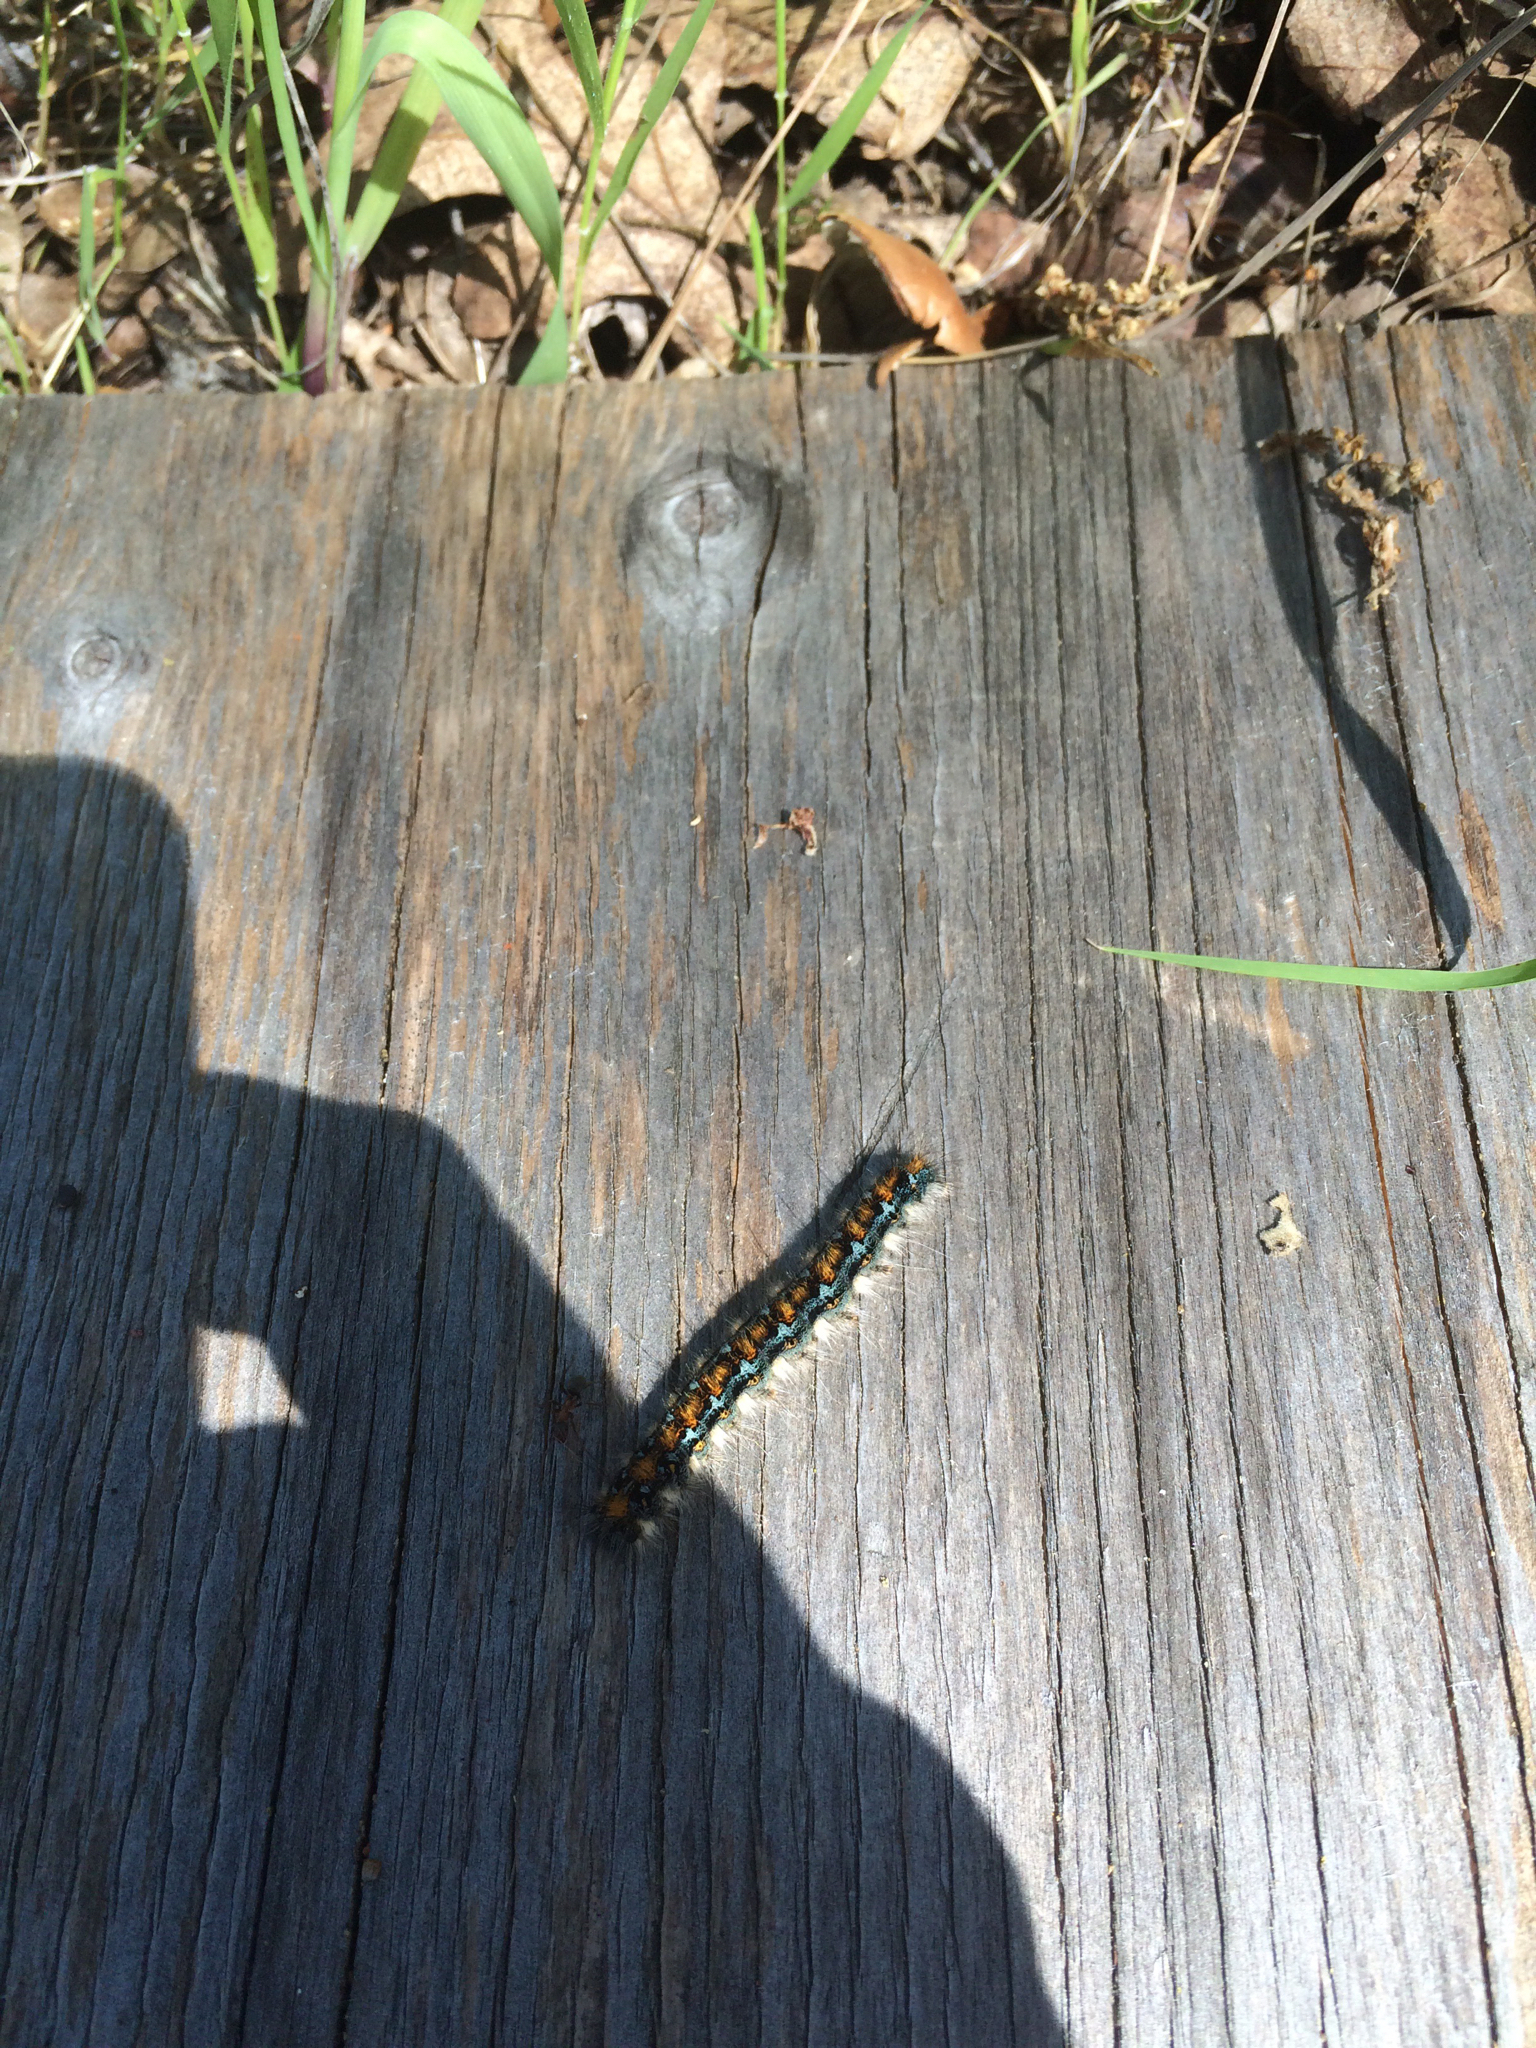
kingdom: Animalia
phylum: Arthropoda
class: Insecta
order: Lepidoptera
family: Lasiocampidae
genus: Malacosoma
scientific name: Malacosoma constricta
